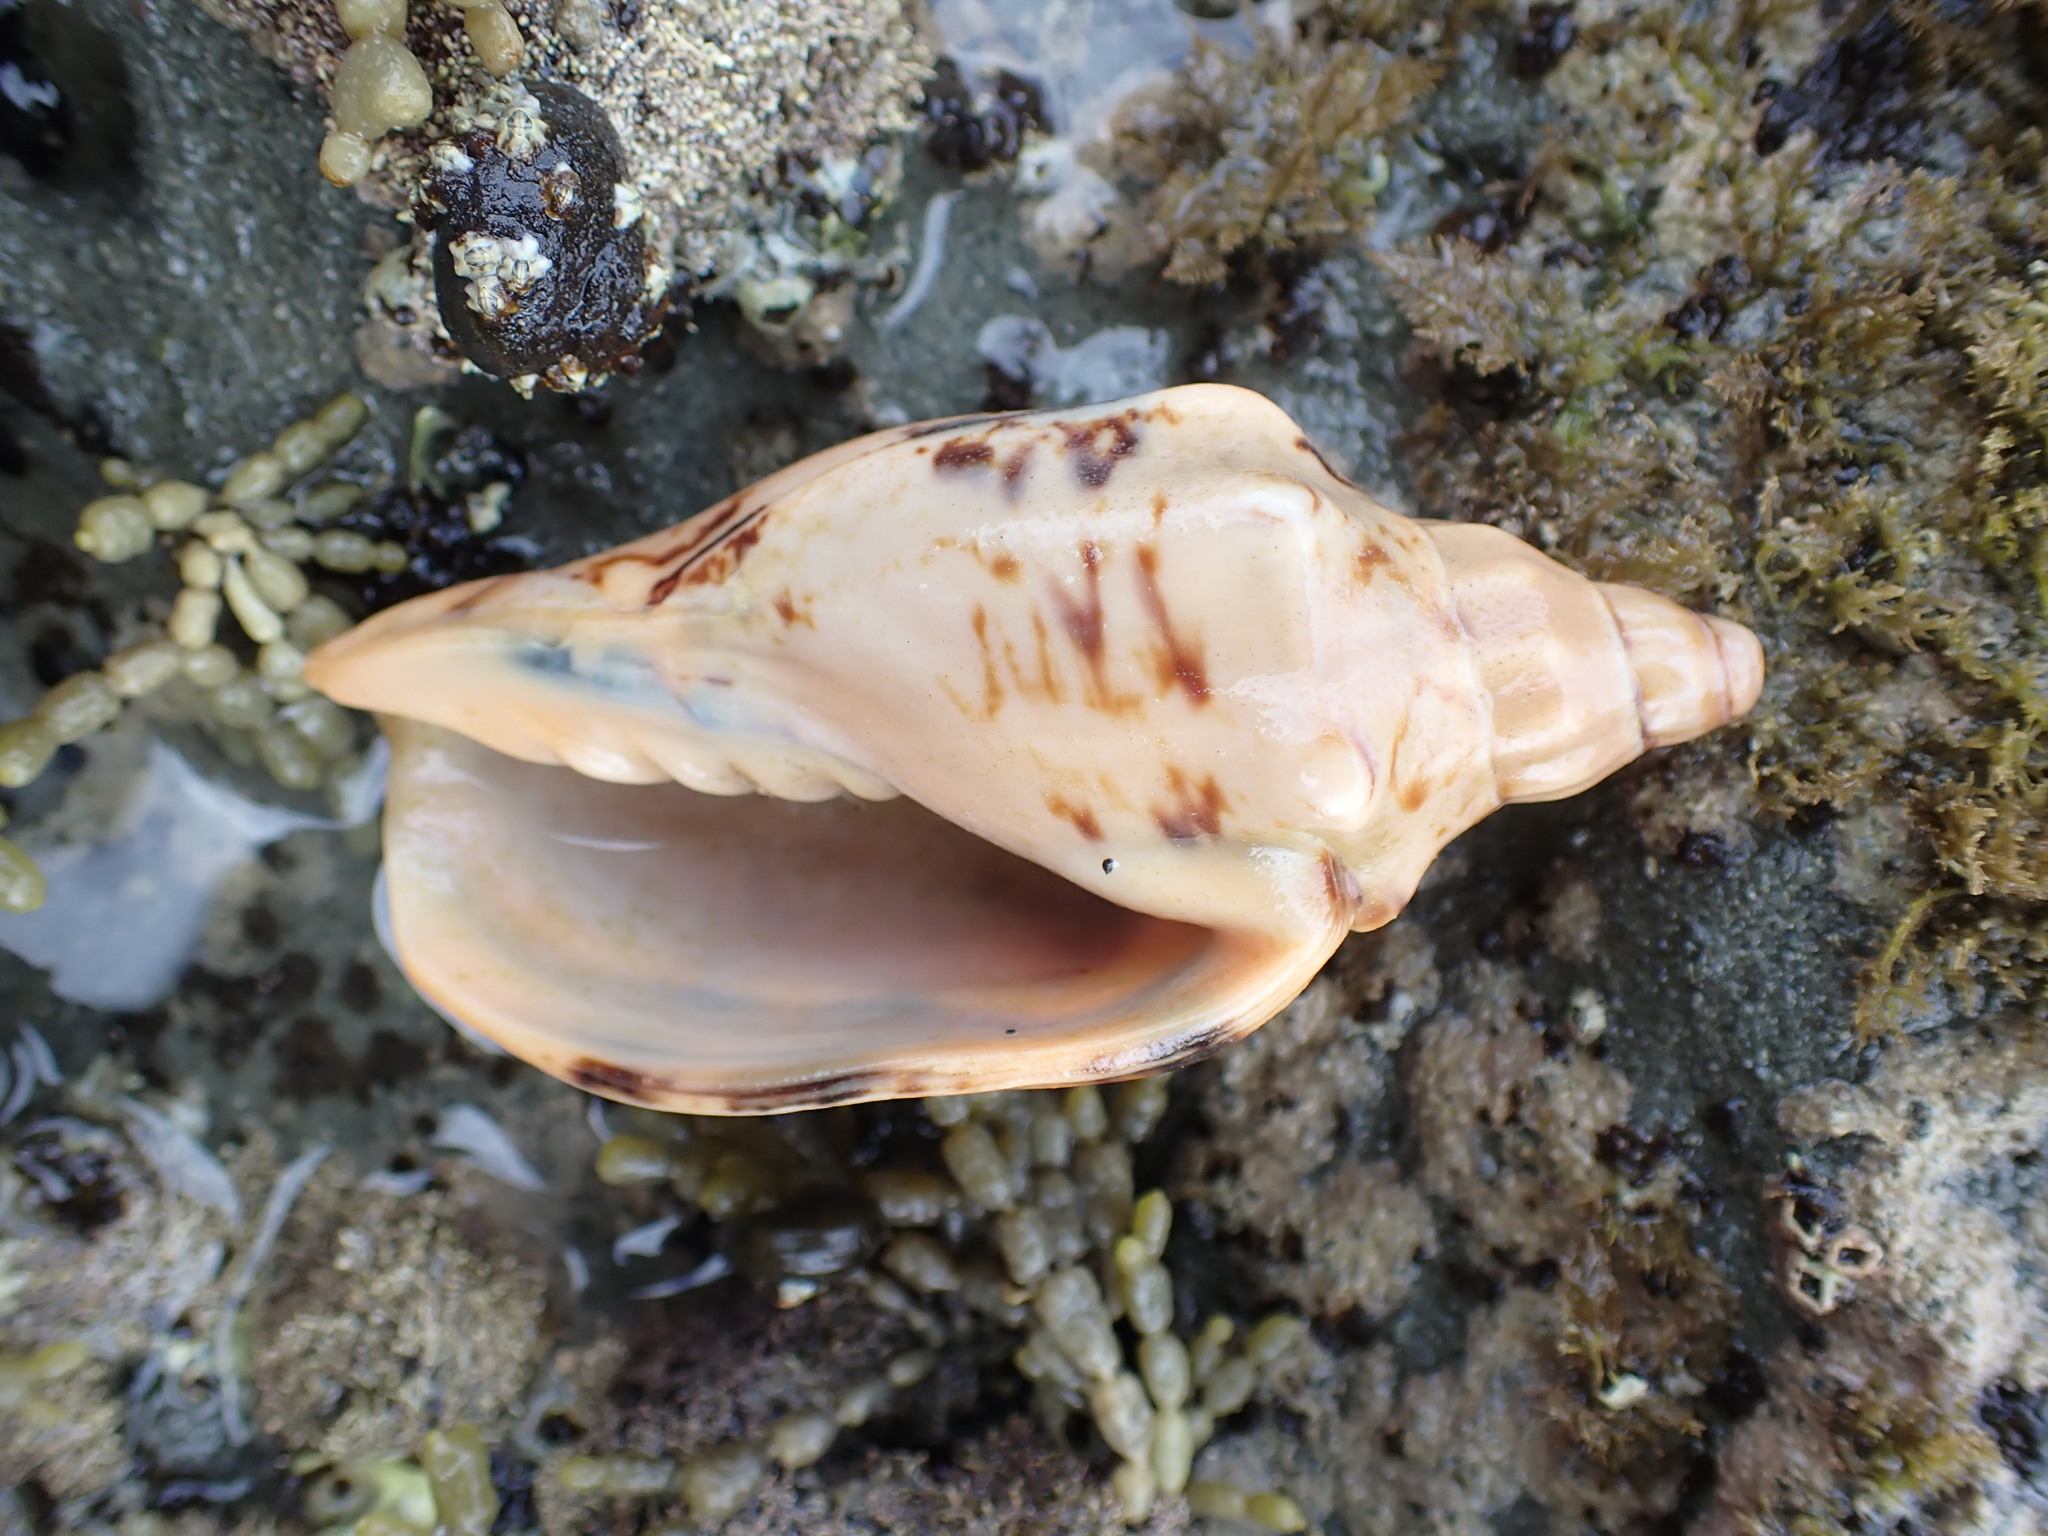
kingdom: Animalia
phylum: Mollusca
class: Gastropoda
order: Neogastropoda
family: Volutidae
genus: Alcithoe
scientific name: Alcithoe arabica
